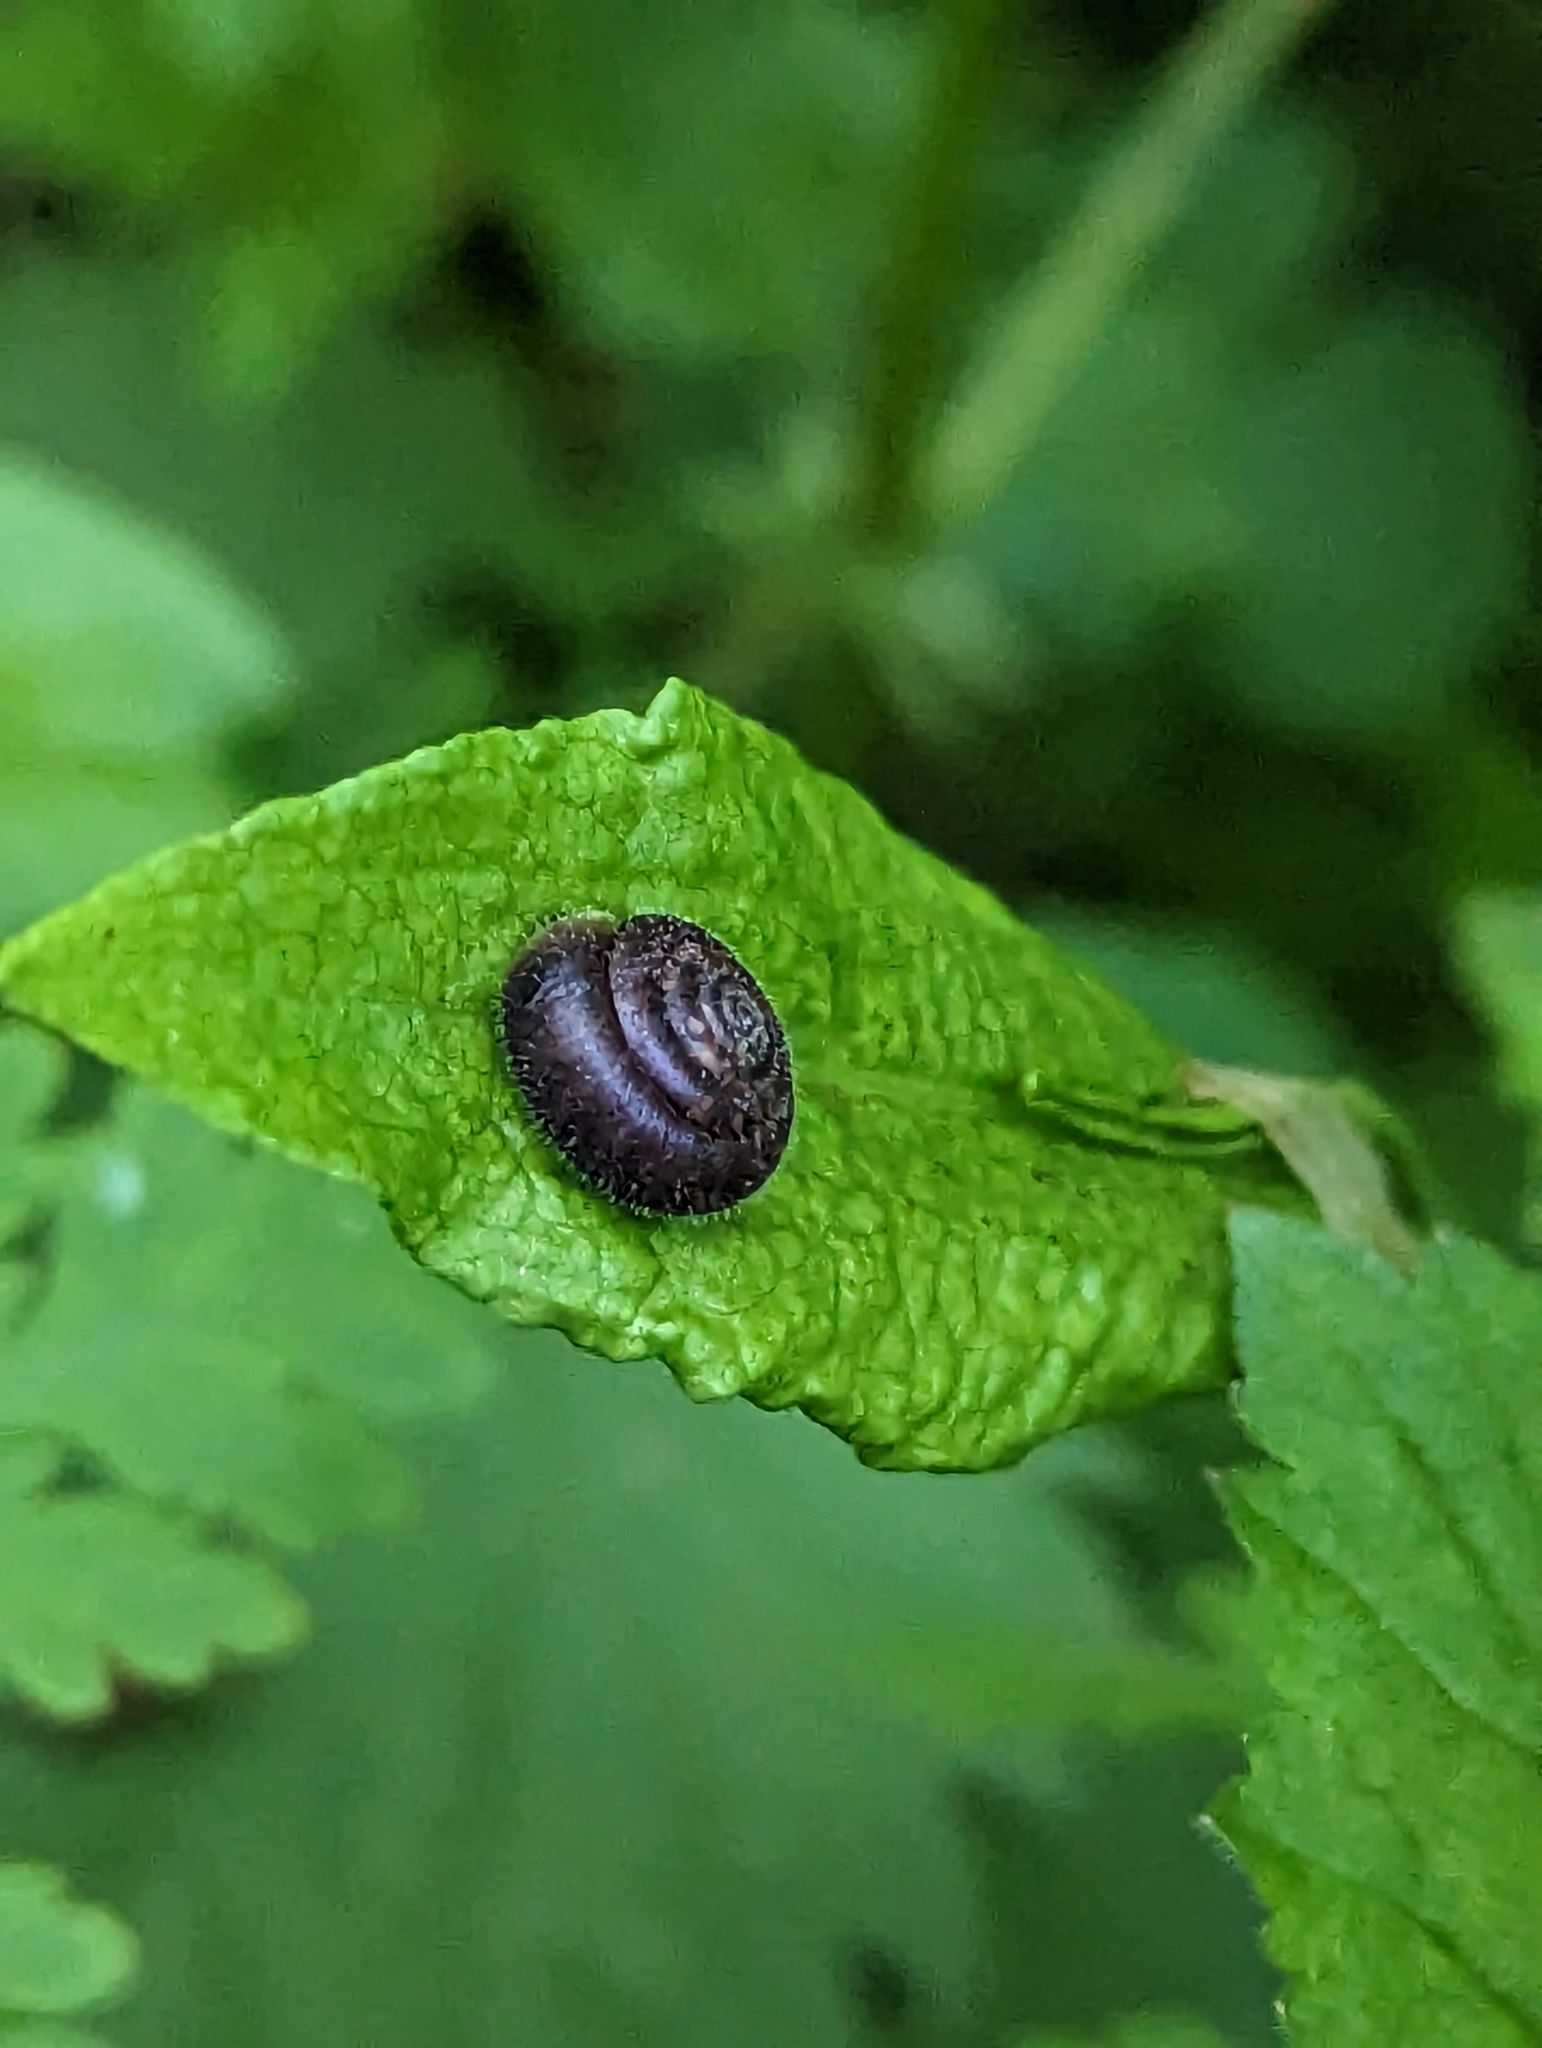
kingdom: Animalia
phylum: Mollusca
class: Gastropoda
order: Stylommatophora
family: Hygromiidae
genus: Trochulus
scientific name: Trochulus hispidus
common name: Hairy snail
